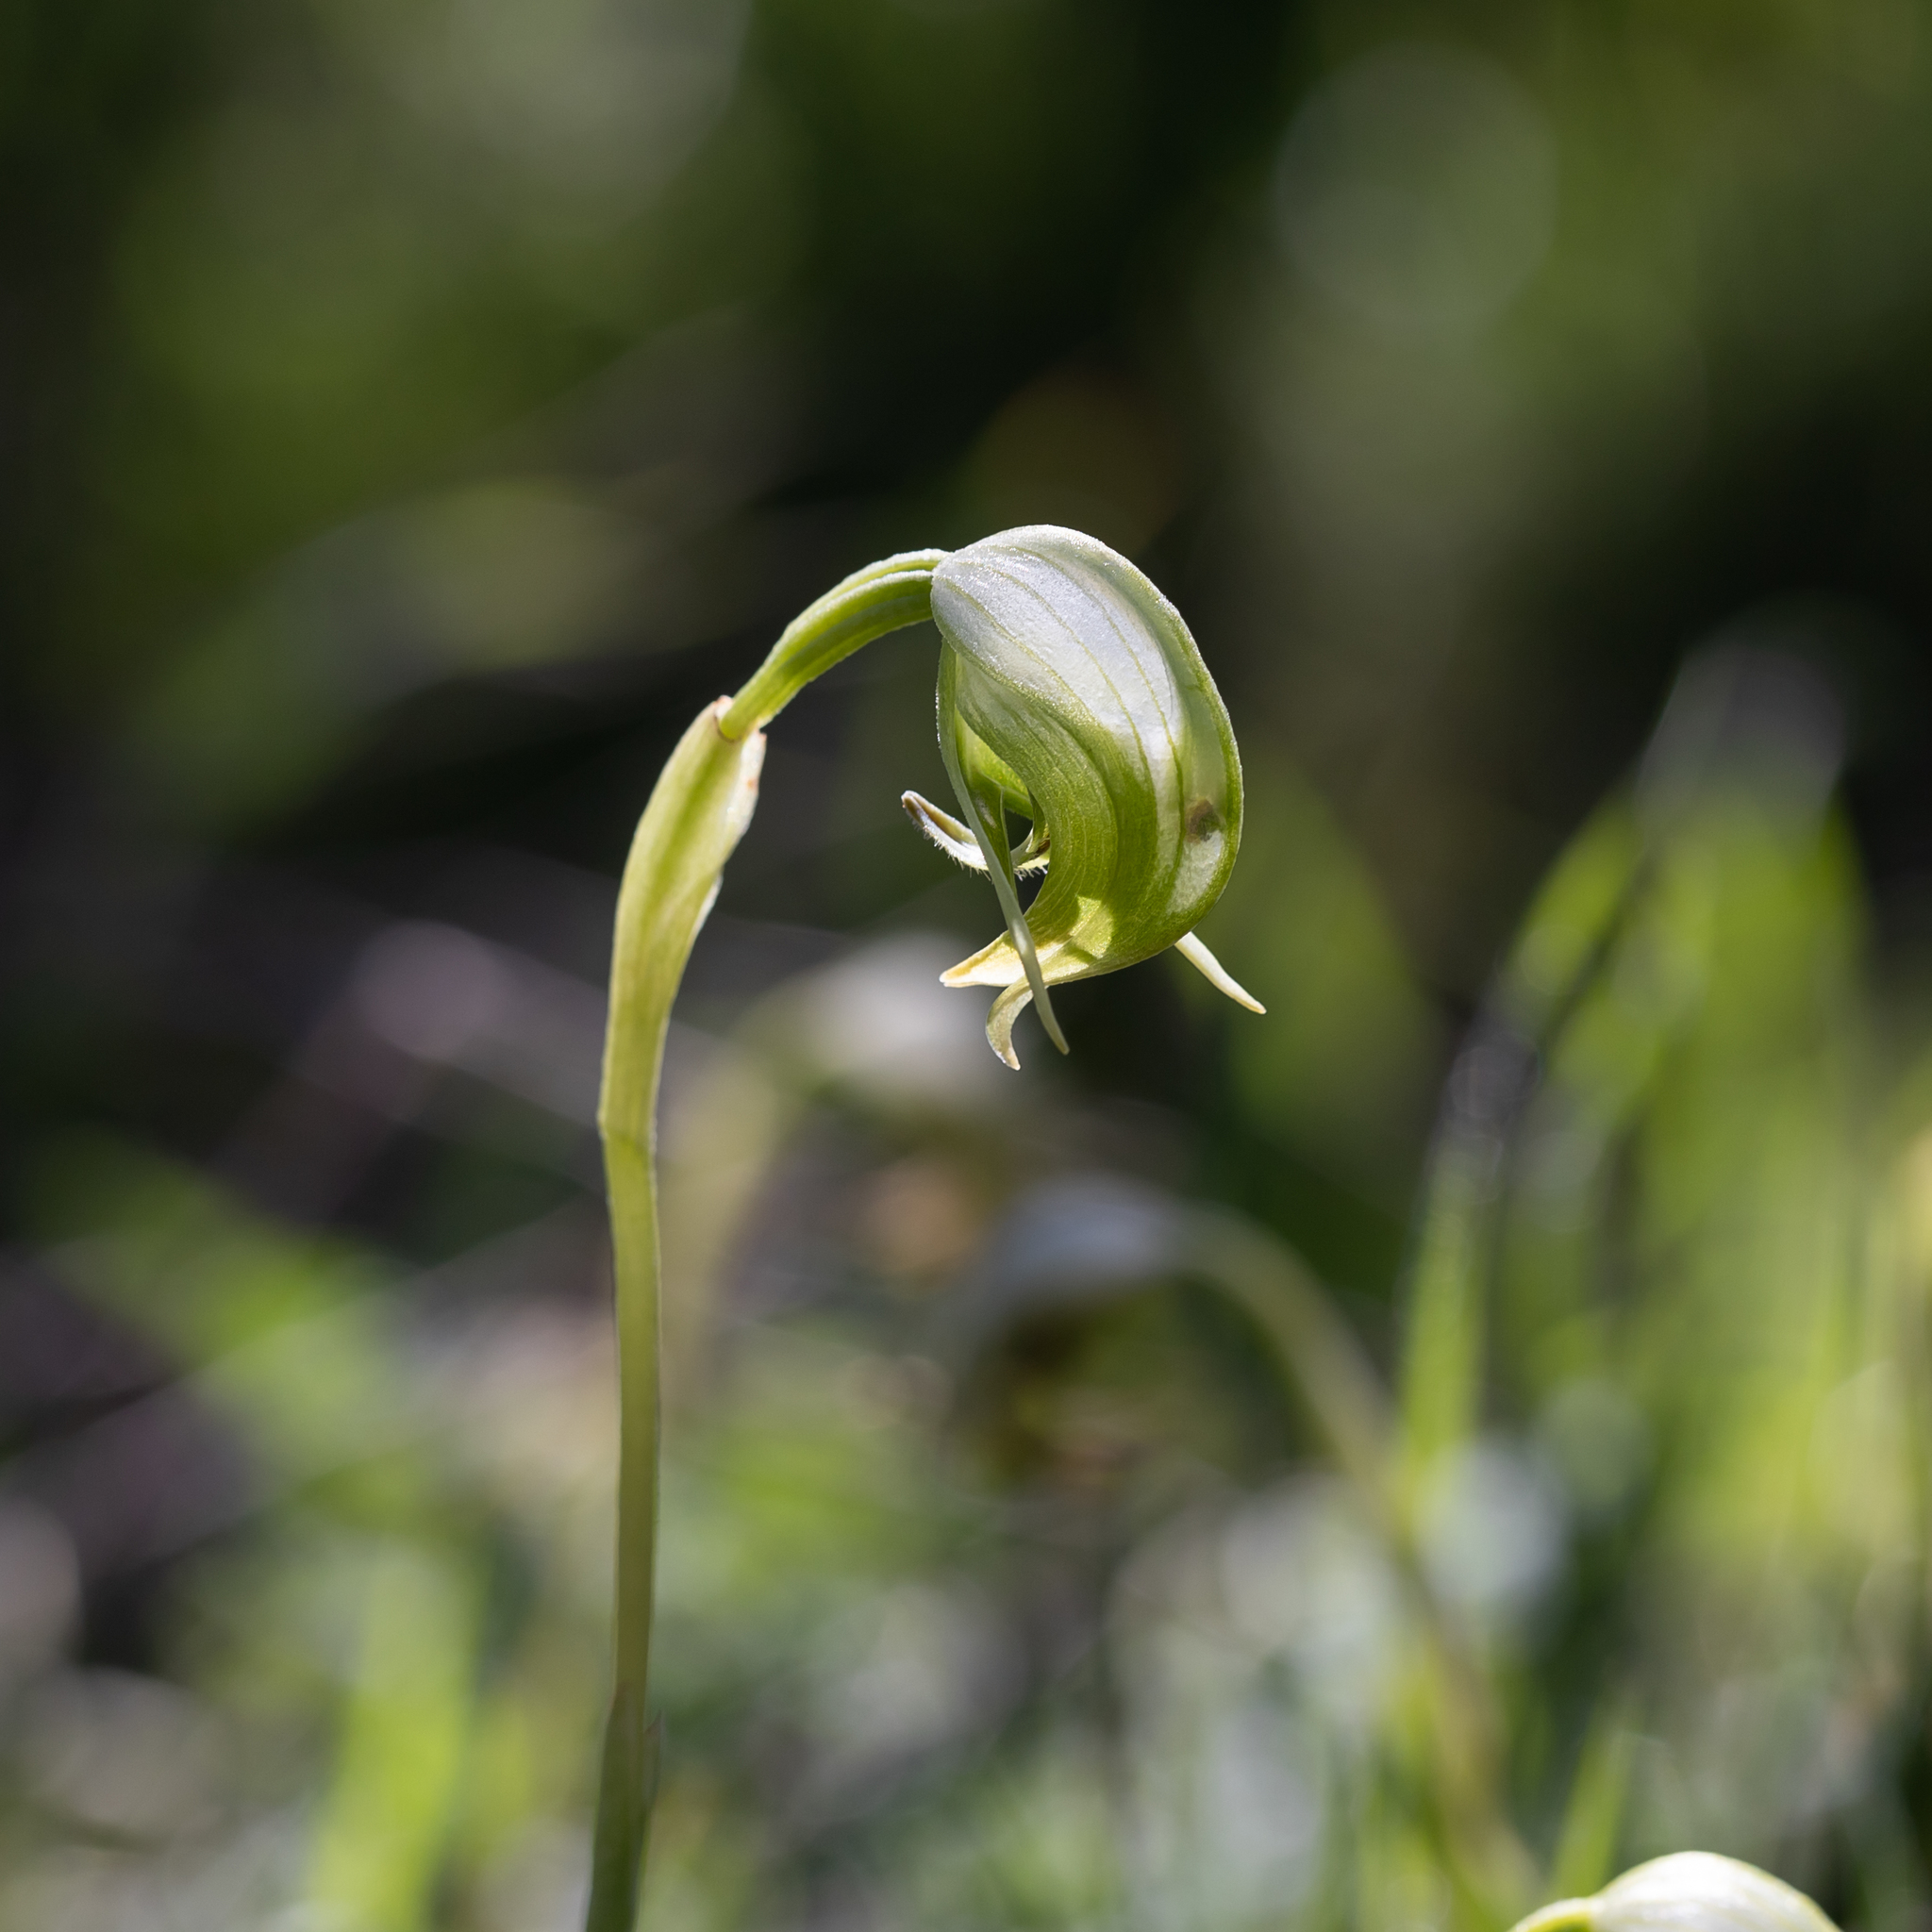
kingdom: Plantae
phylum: Tracheophyta
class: Liliopsida
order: Asparagales
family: Orchidaceae
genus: Pterostylis
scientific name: Pterostylis nutans
